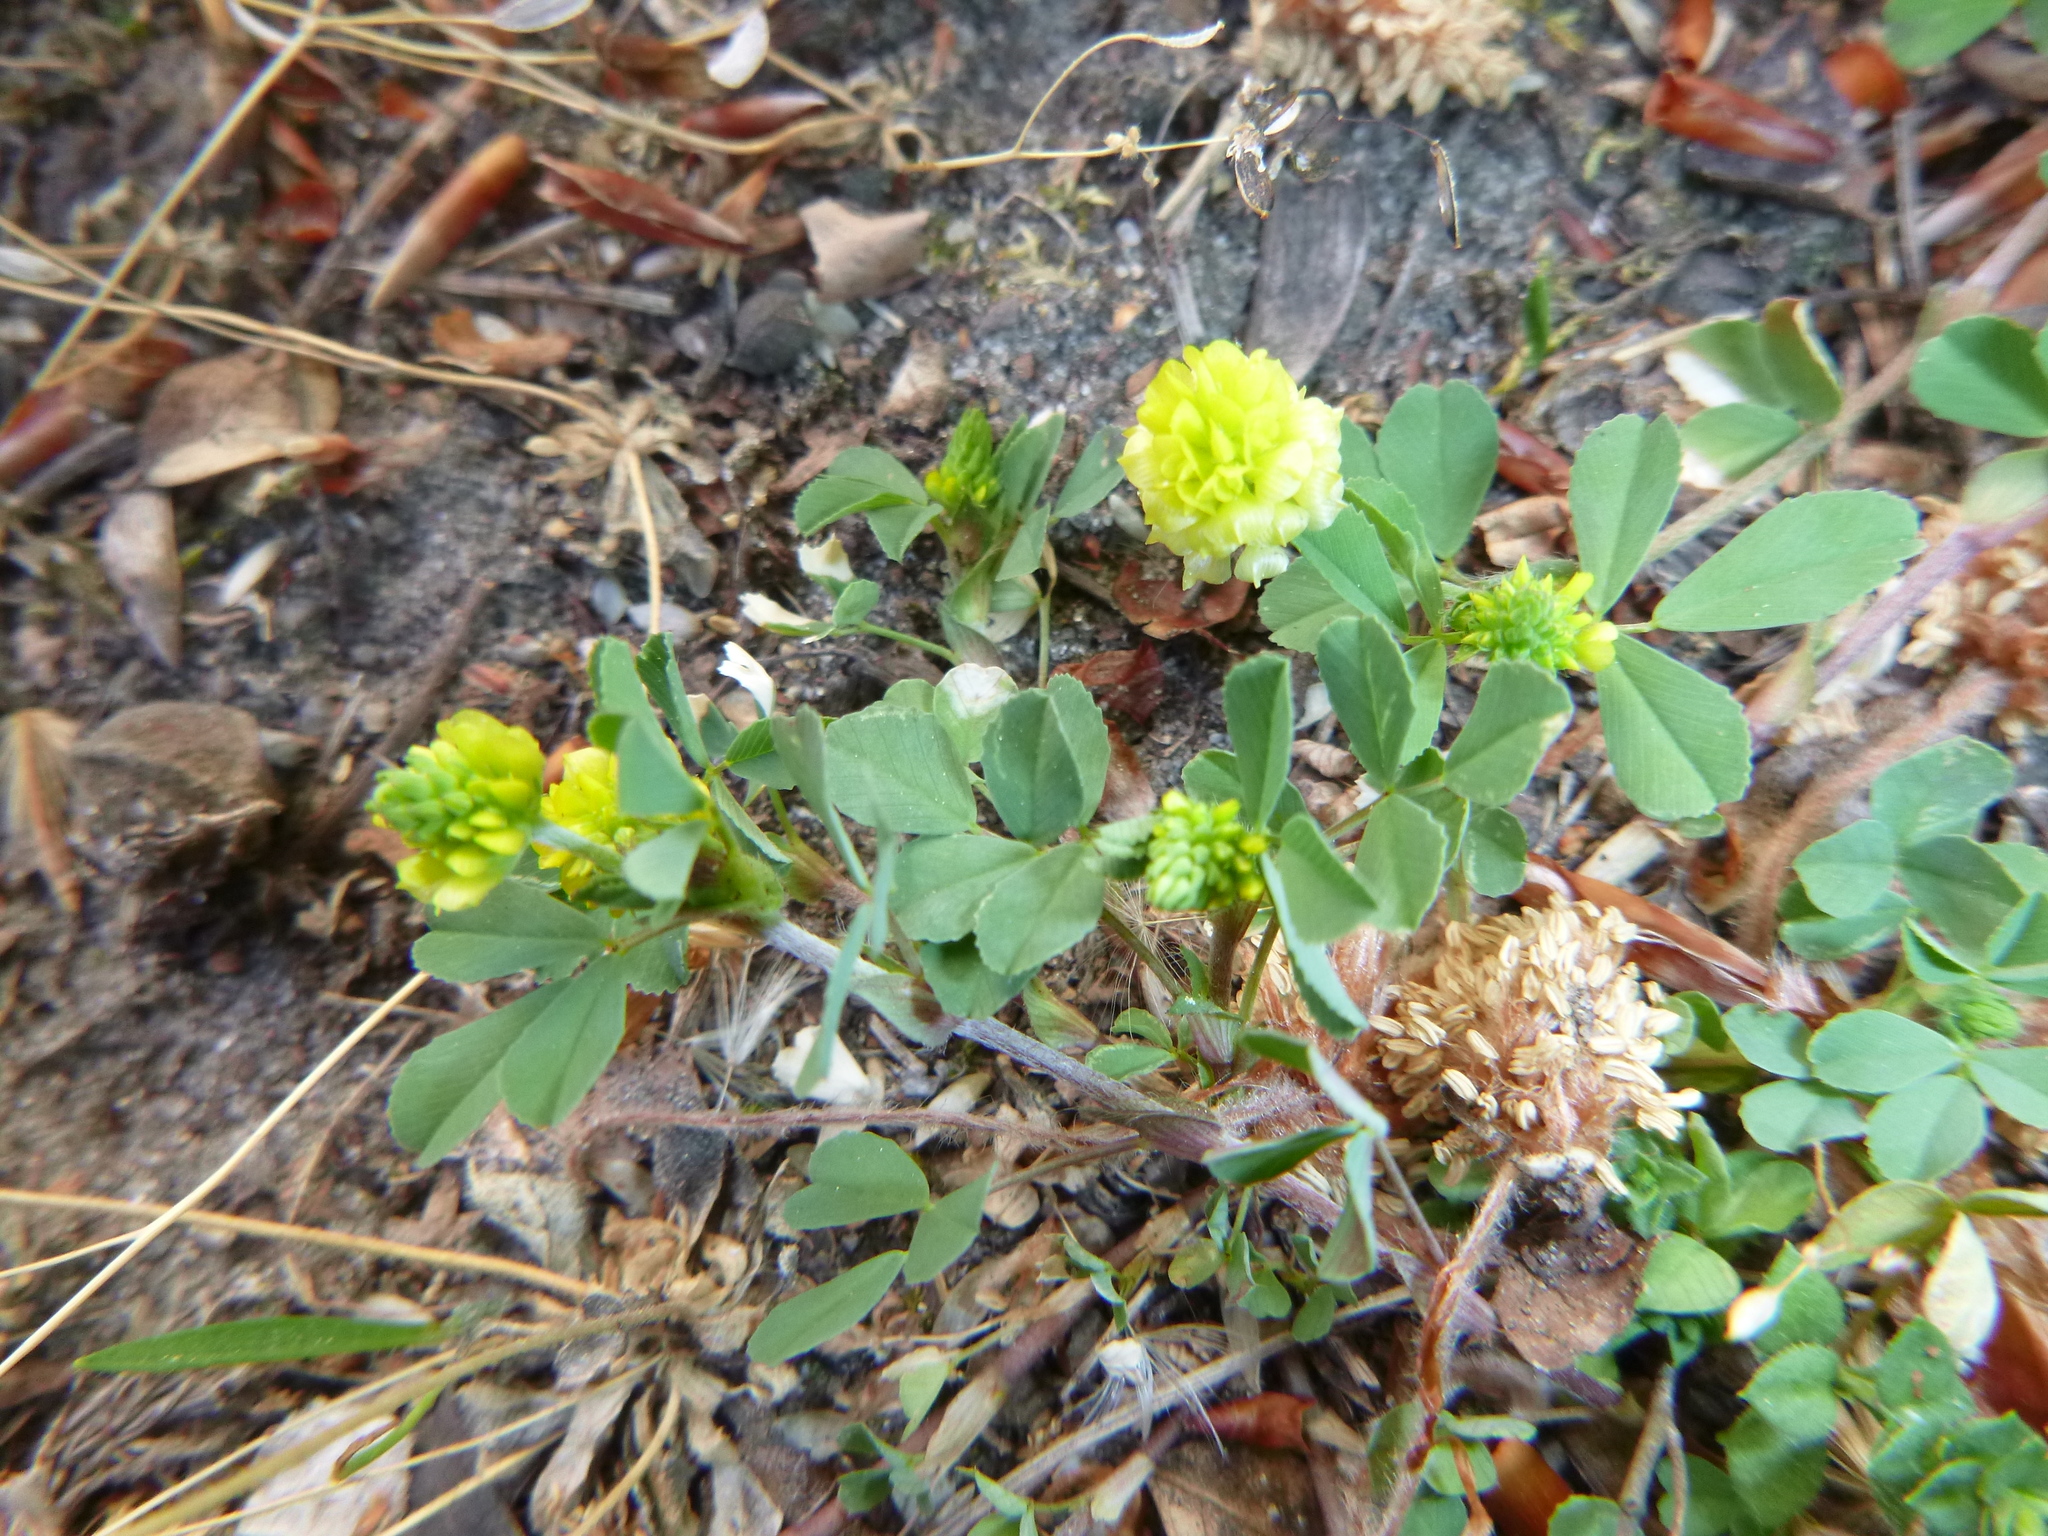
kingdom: Plantae
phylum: Tracheophyta
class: Magnoliopsida
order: Fabales
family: Fabaceae
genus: Trifolium
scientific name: Trifolium campestre
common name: Field clover
